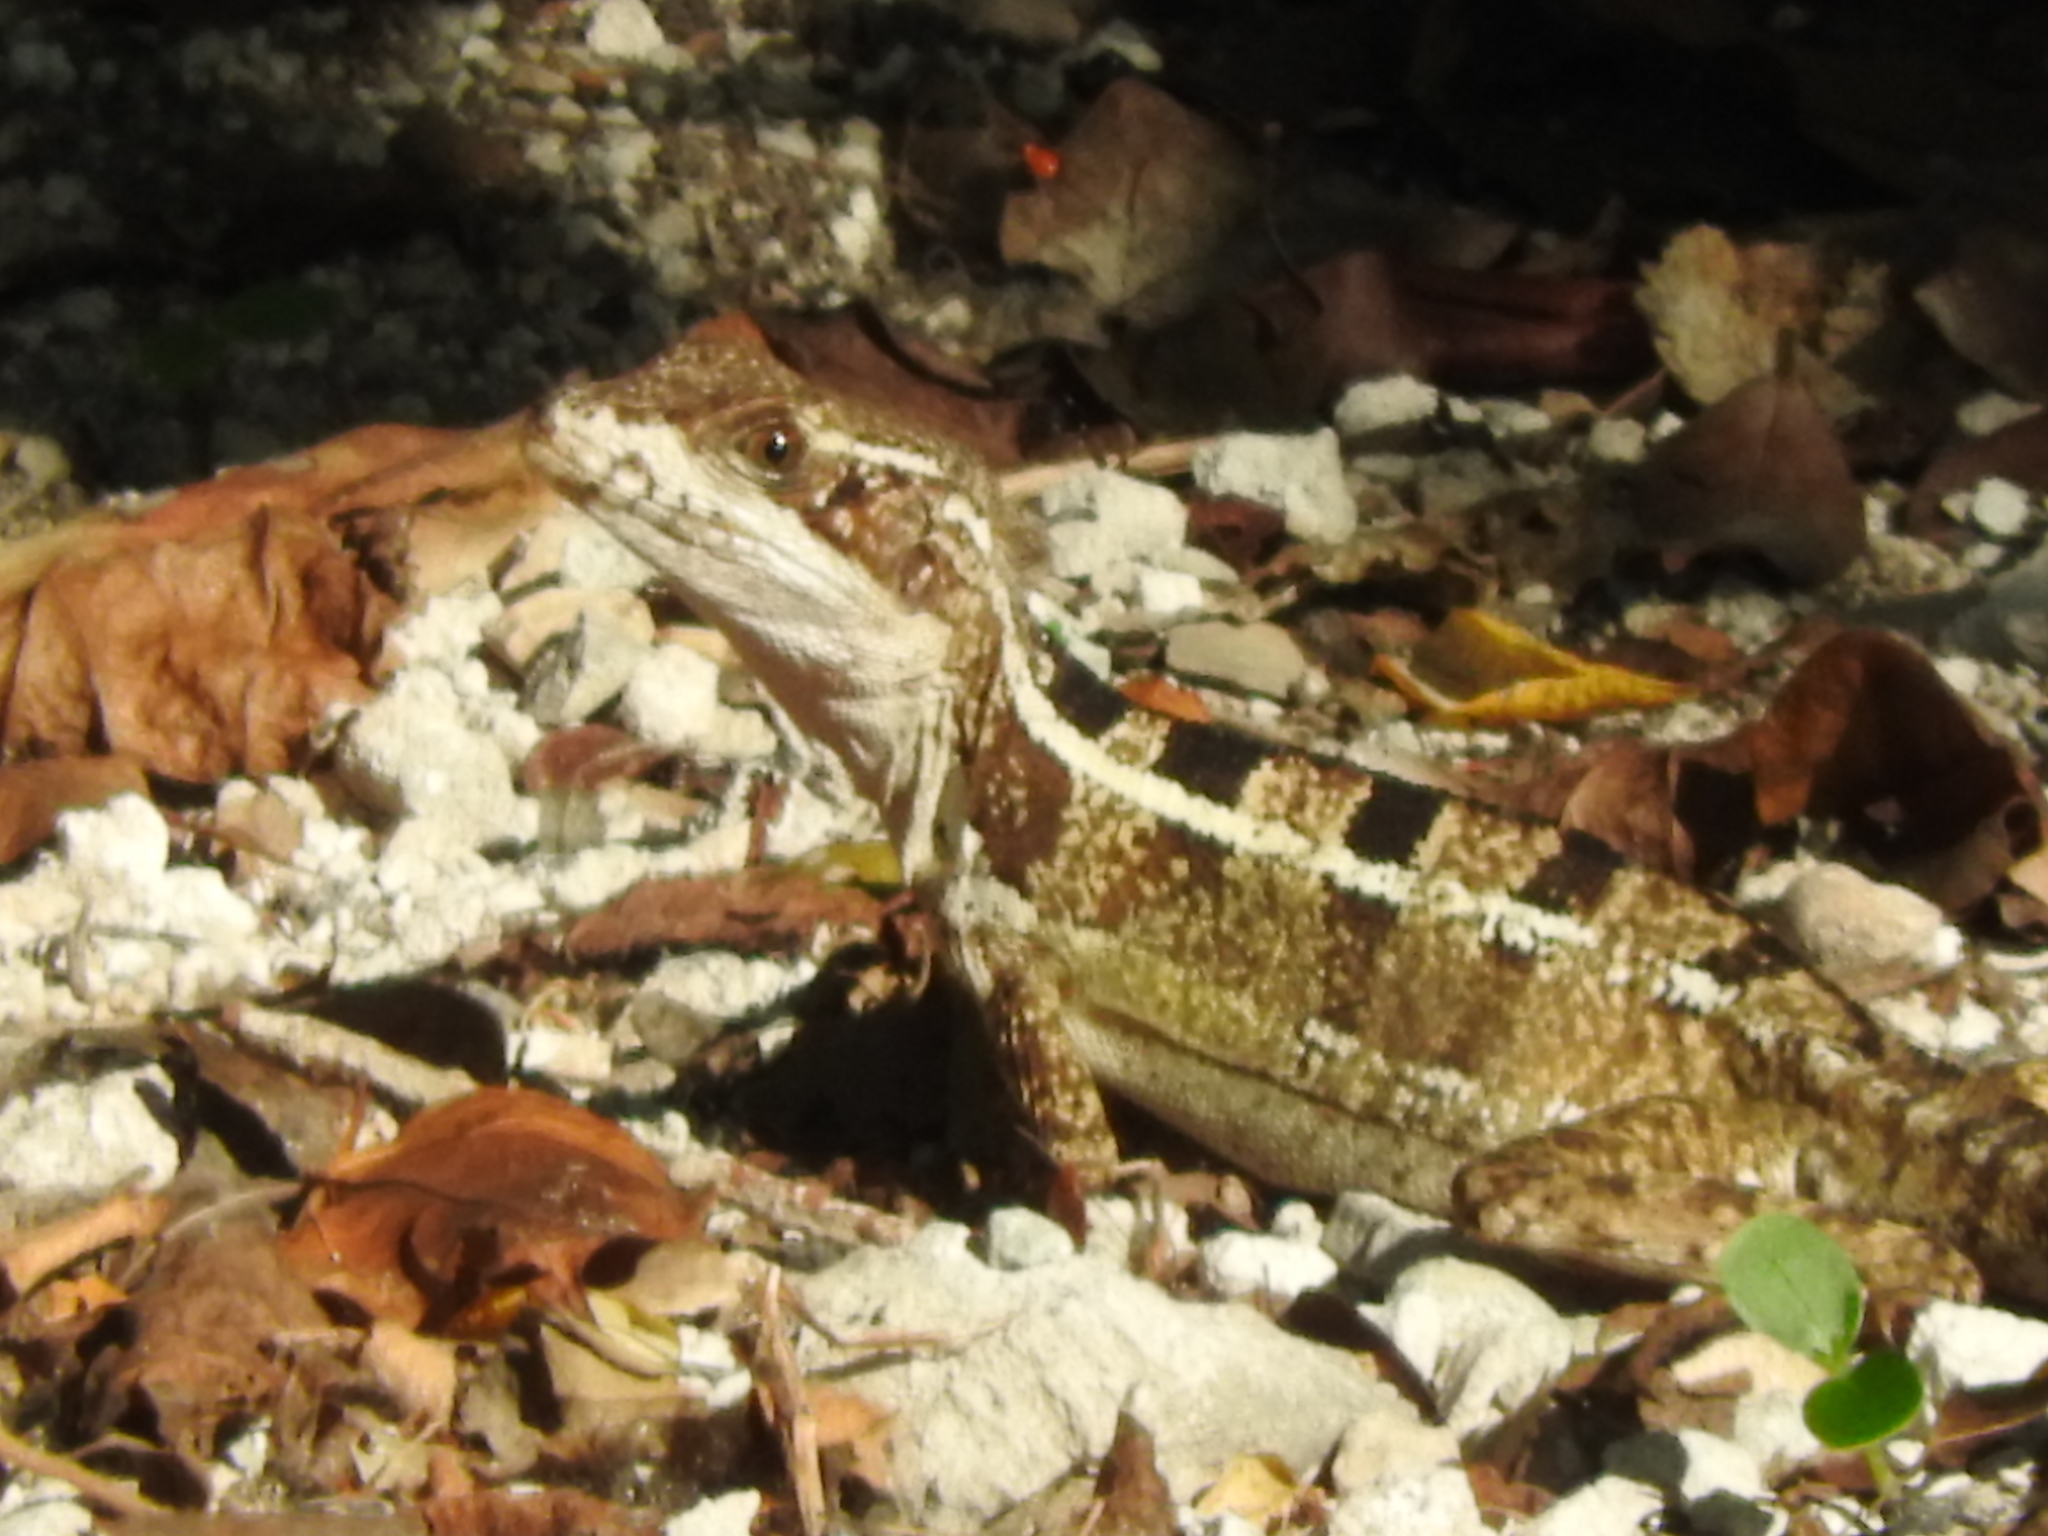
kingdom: Animalia
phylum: Chordata
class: Squamata
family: Corytophanidae
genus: Basiliscus
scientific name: Basiliscus vittatus
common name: Brown basilisk
